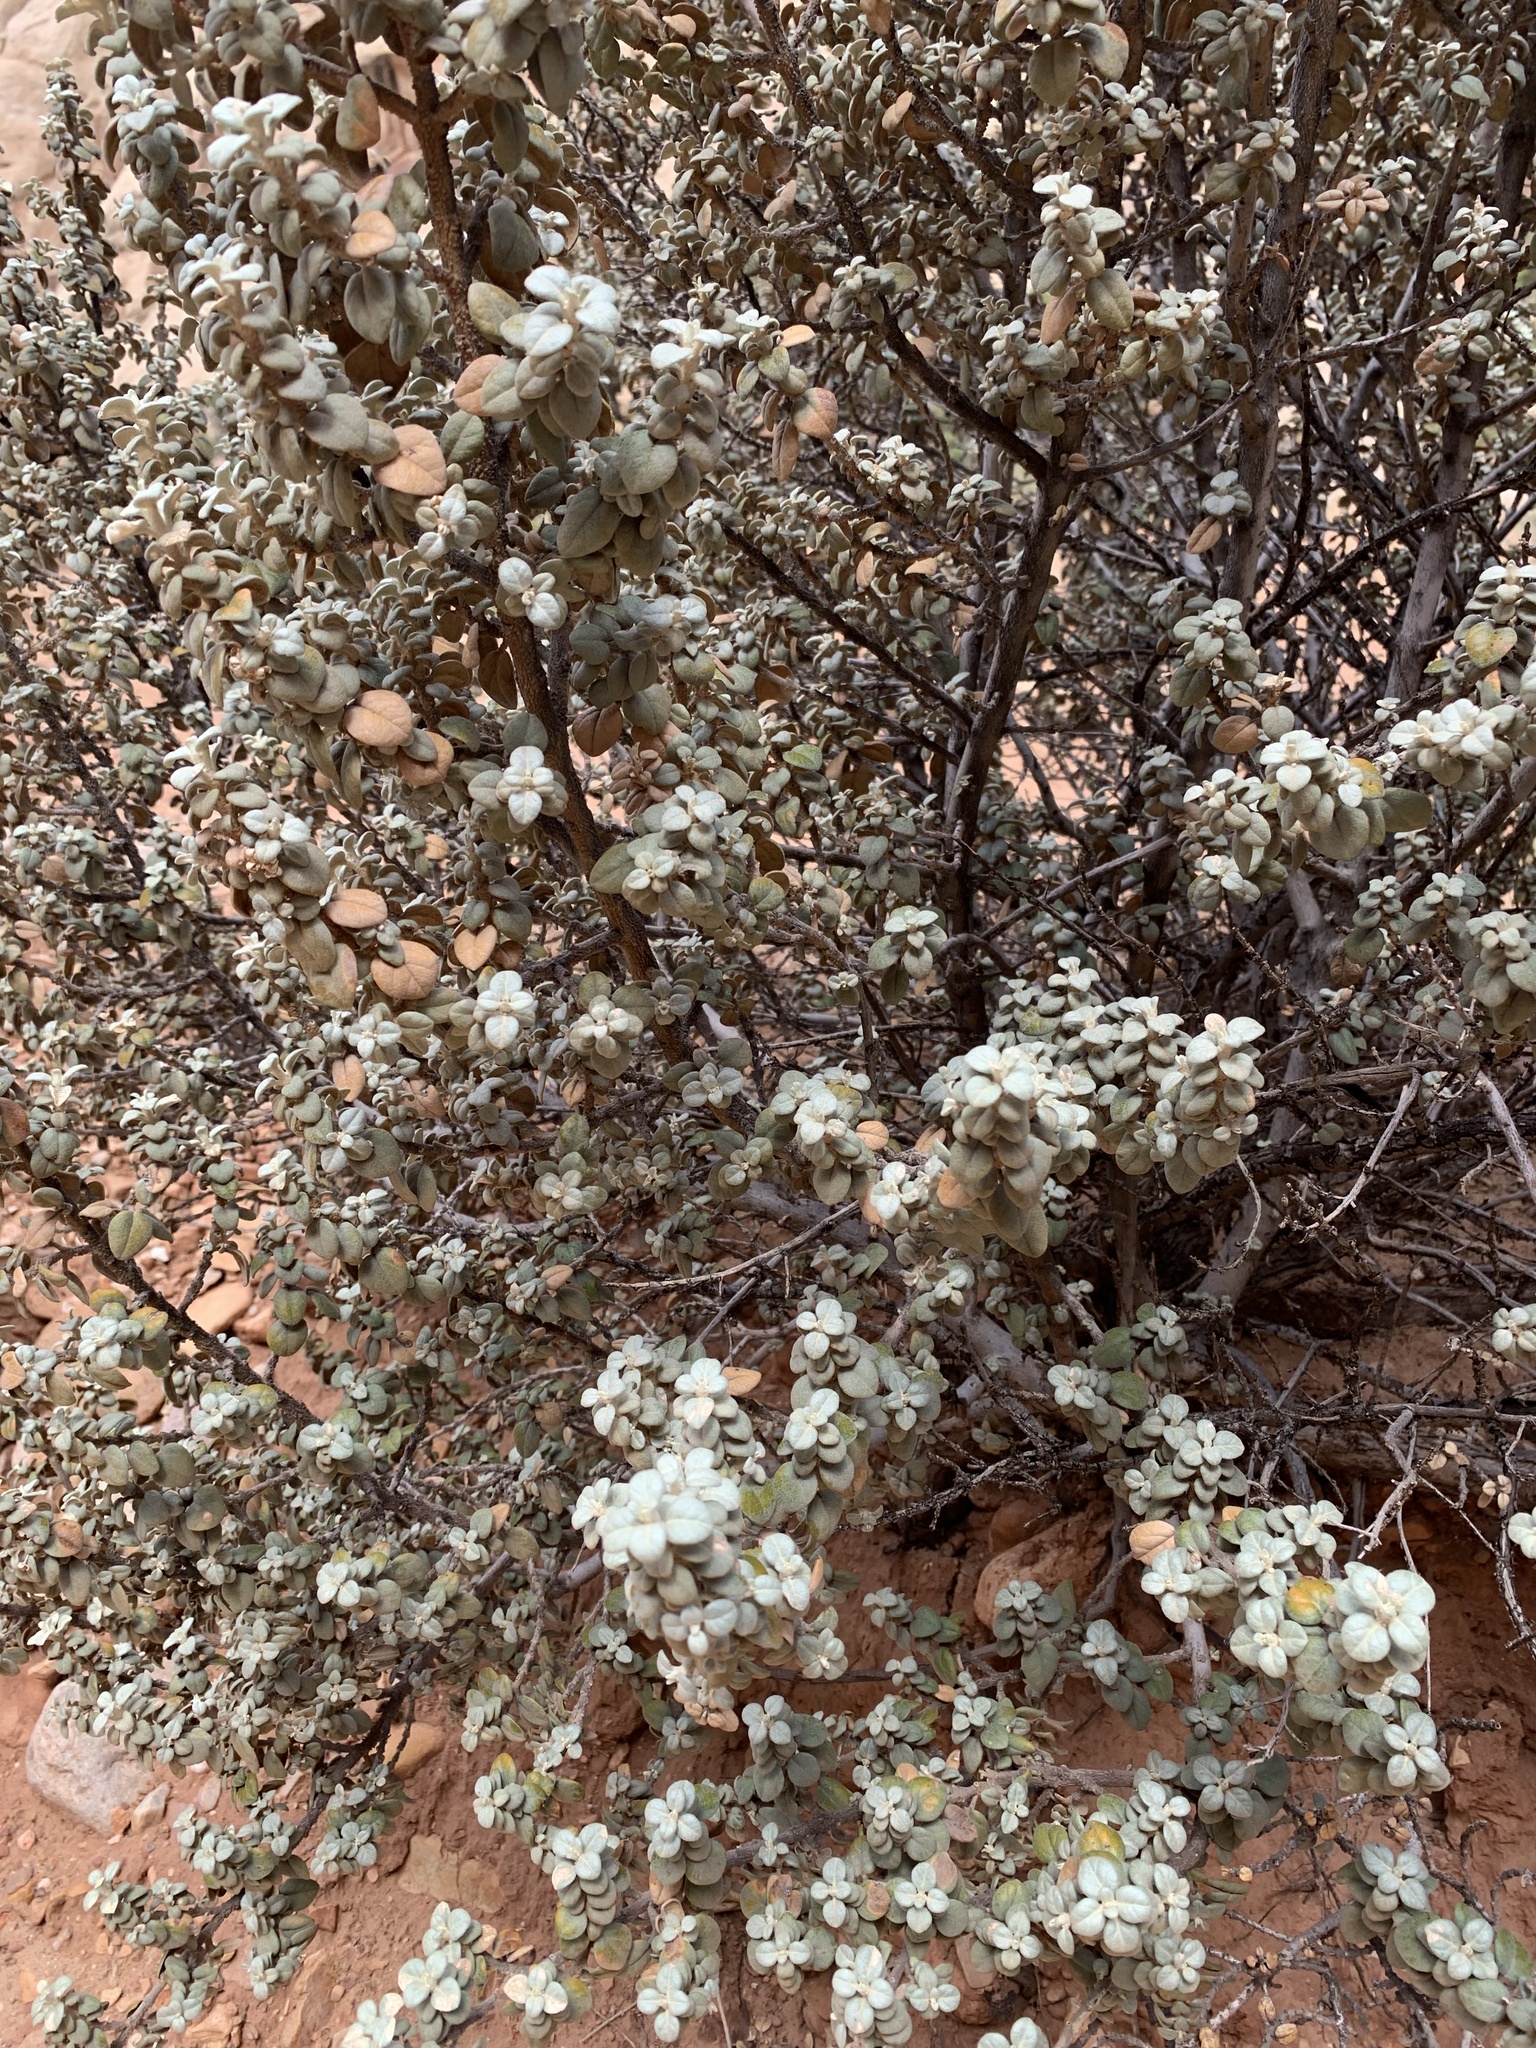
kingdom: Plantae
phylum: Tracheophyta
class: Magnoliopsida
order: Rosales
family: Elaeagnaceae
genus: Shepherdia
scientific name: Shepherdia rotundifolia
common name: Silverscale
